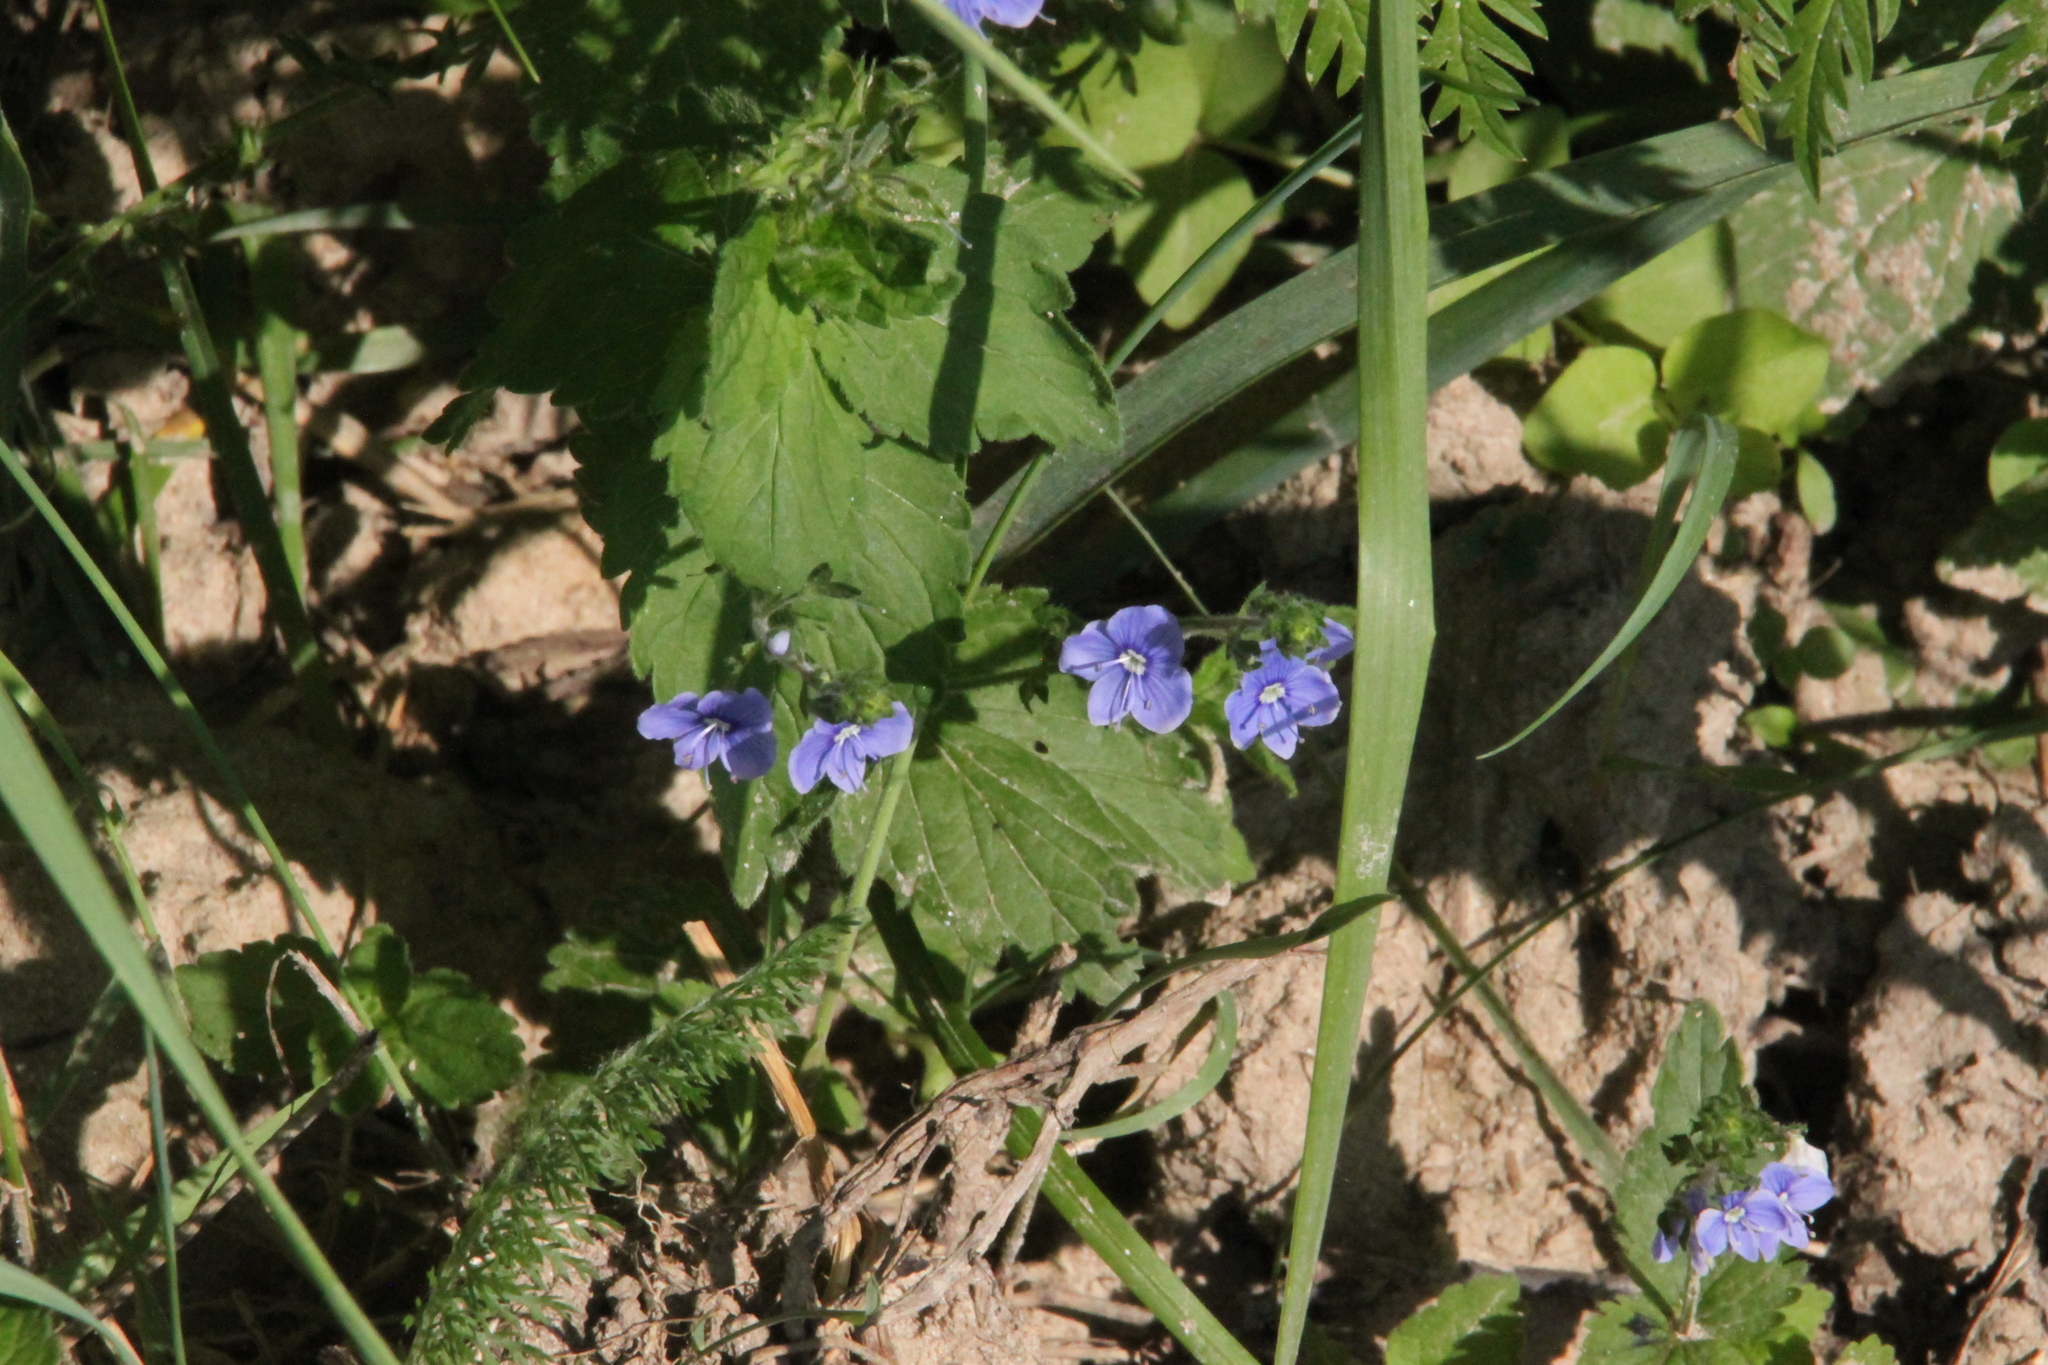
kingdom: Plantae
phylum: Tracheophyta
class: Magnoliopsida
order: Lamiales
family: Plantaginaceae
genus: Veronica
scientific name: Veronica chamaedrys
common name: Germander speedwell
